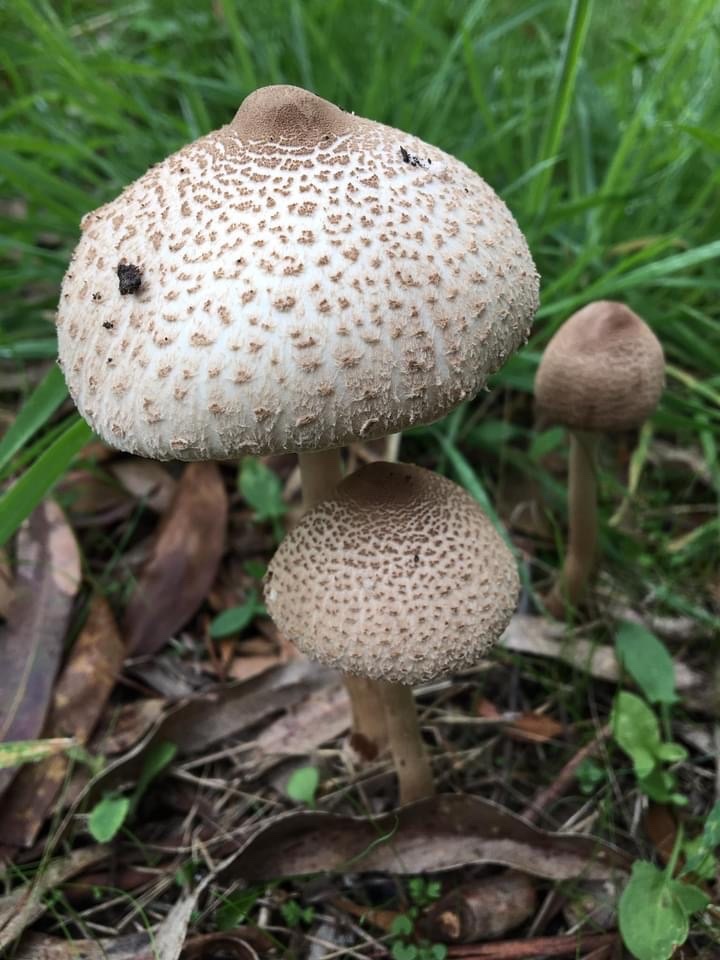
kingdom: Fungi
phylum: Basidiomycota
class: Agaricomycetes
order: Agaricales
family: Agaricaceae
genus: Macrolepiota
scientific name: Macrolepiota clelandii
